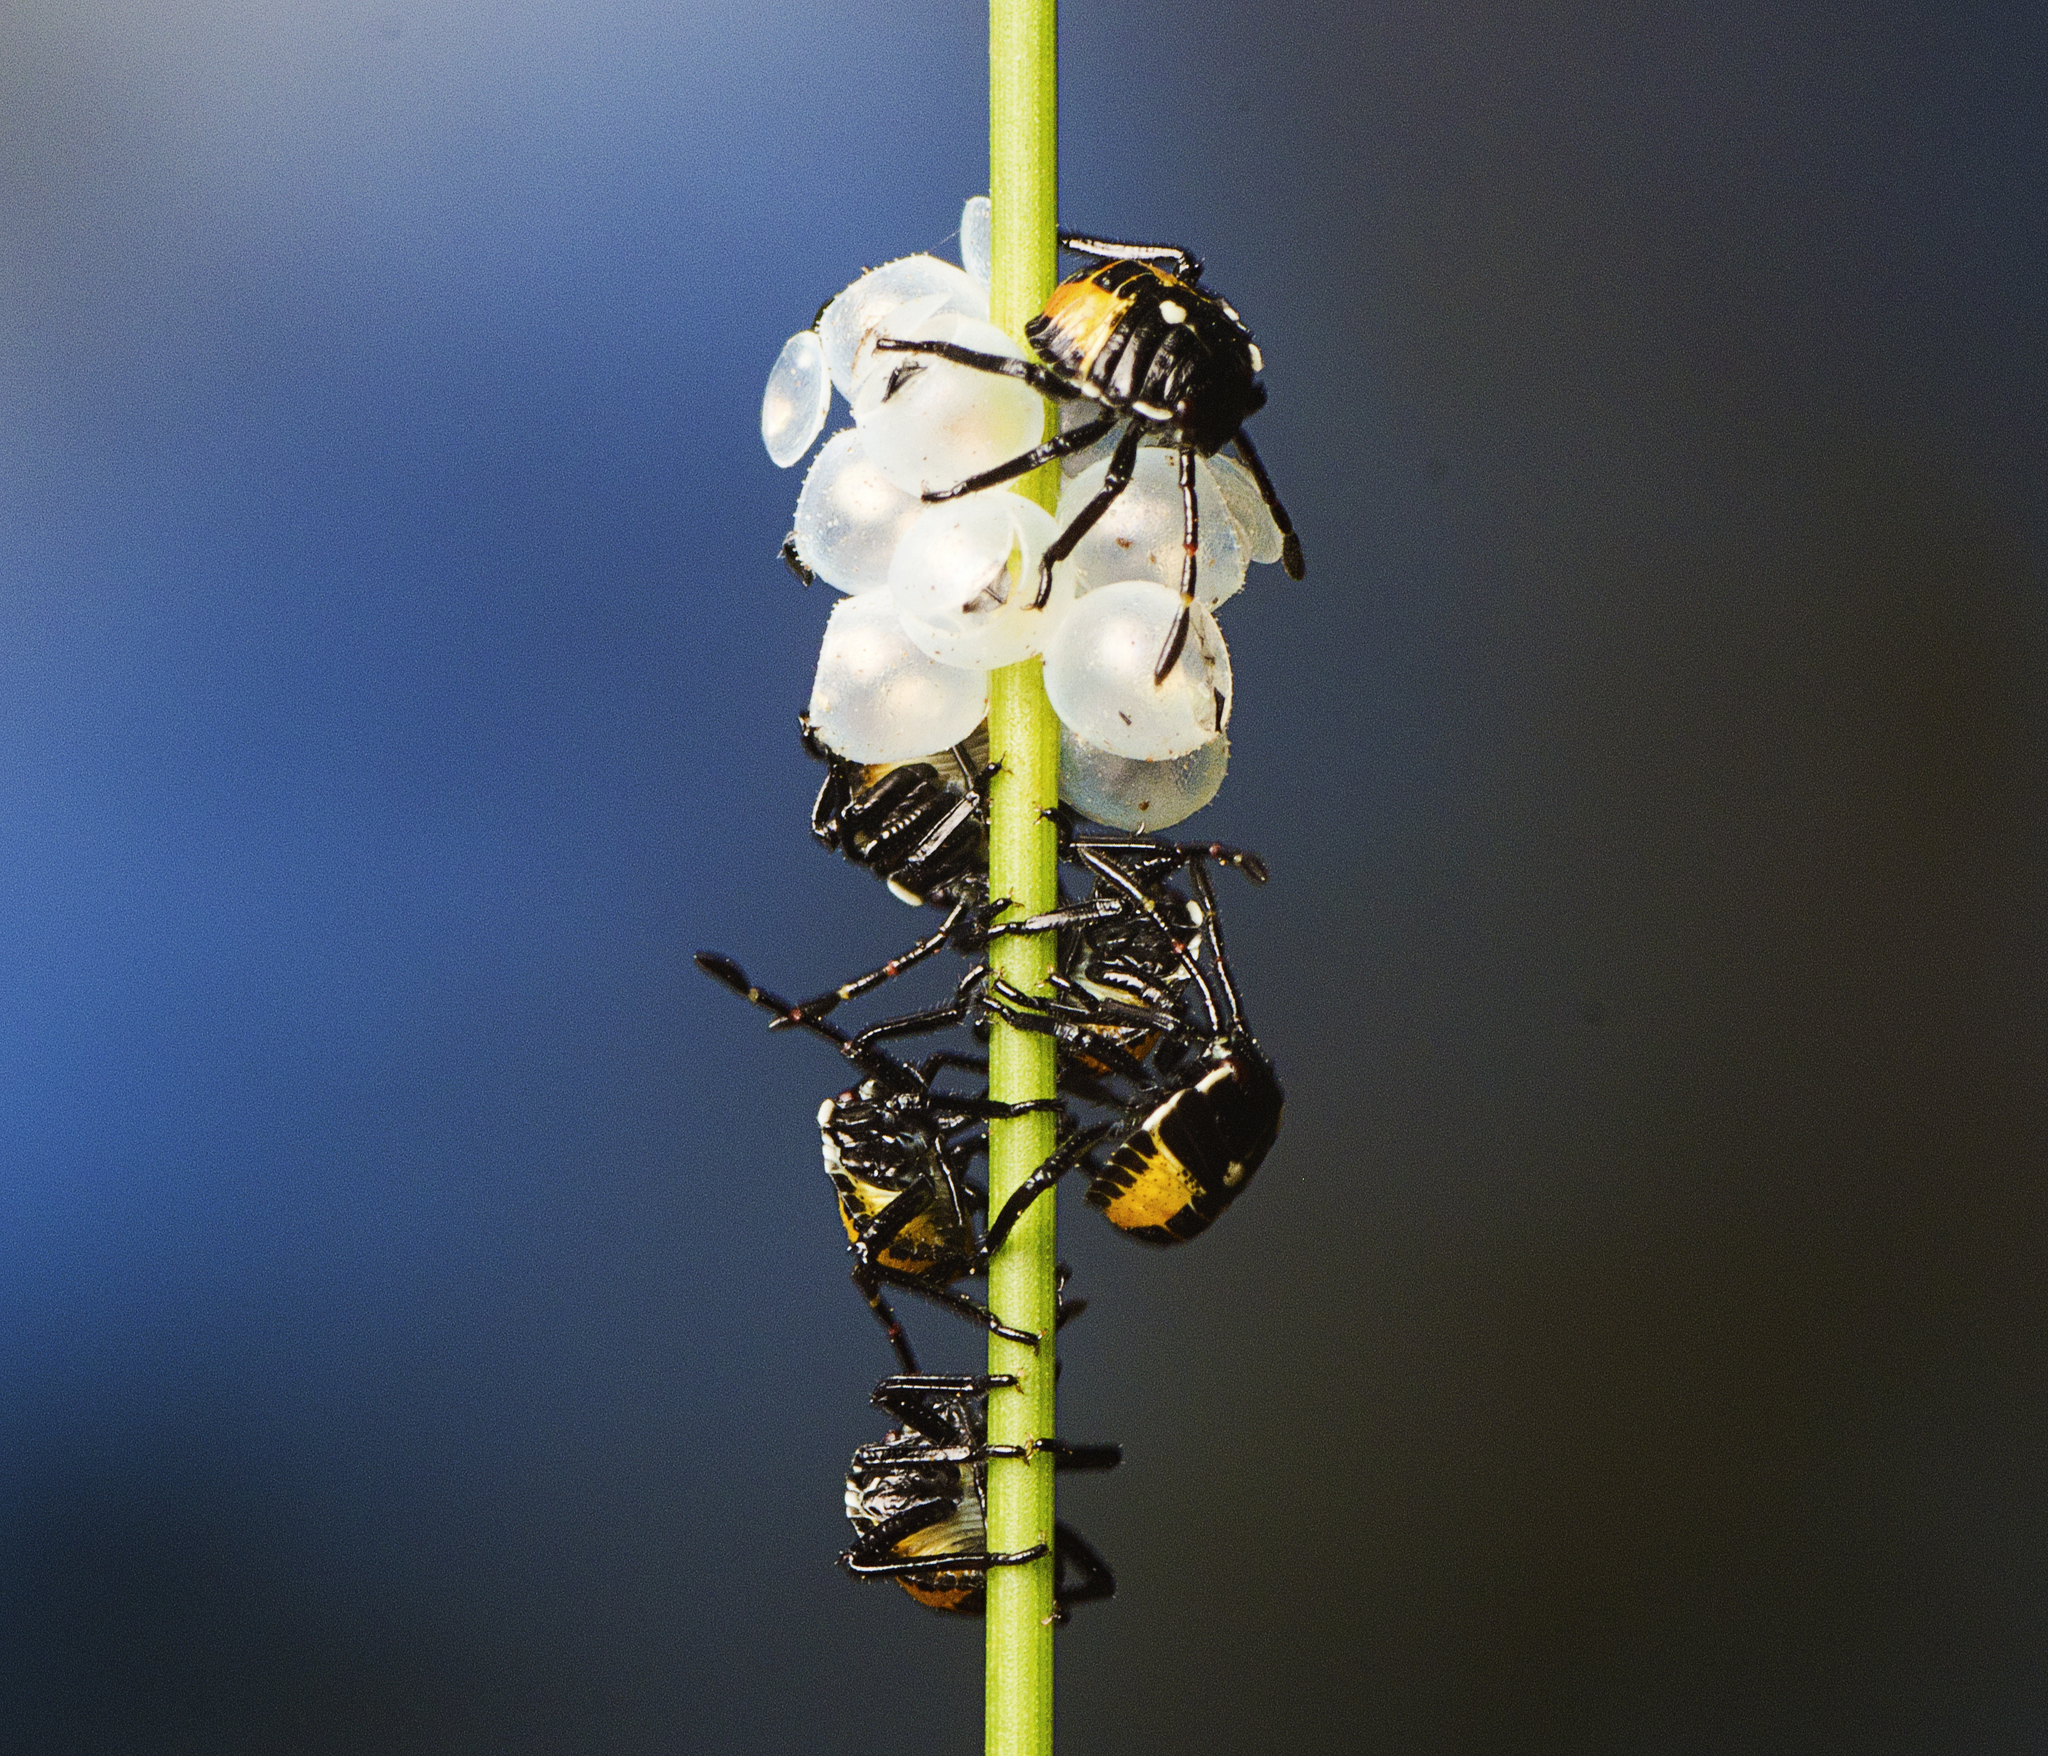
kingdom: Animalia
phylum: Arthropoda
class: Insecta
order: Hemiptera
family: Pentatomidae
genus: Commius
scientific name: Commius
